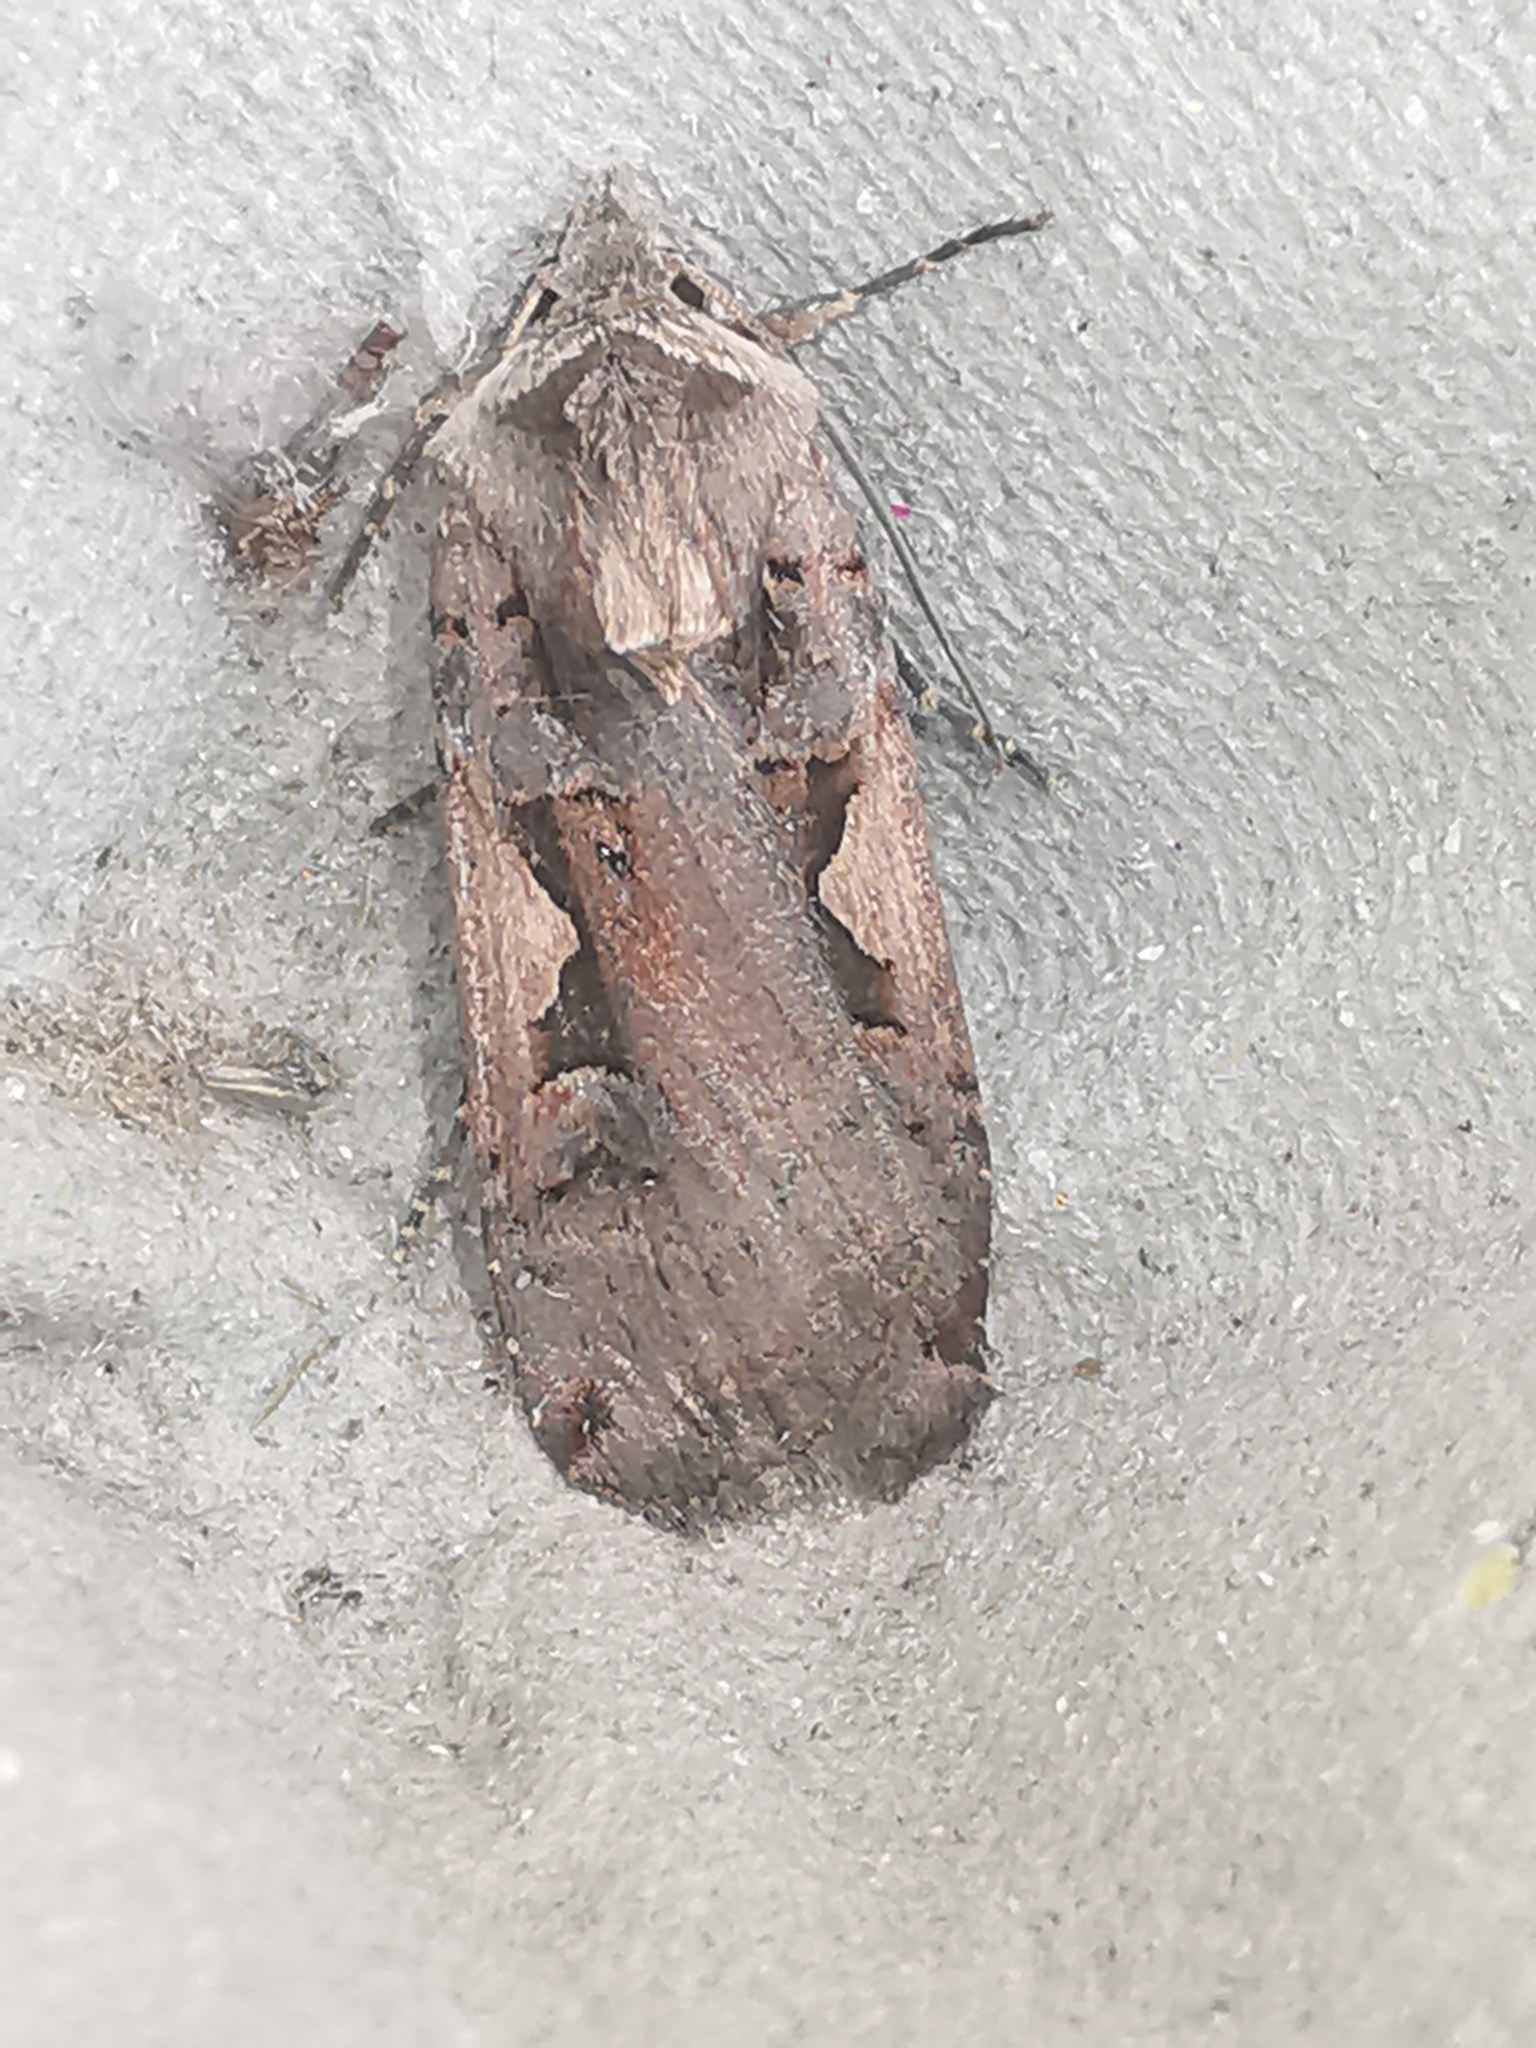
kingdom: Animalia
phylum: Arthropoda
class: Insecta
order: Lepidoptera
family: Noctuidae
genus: Xestia
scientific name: Xestia c-nigrum
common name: Setaceous hebrew character
